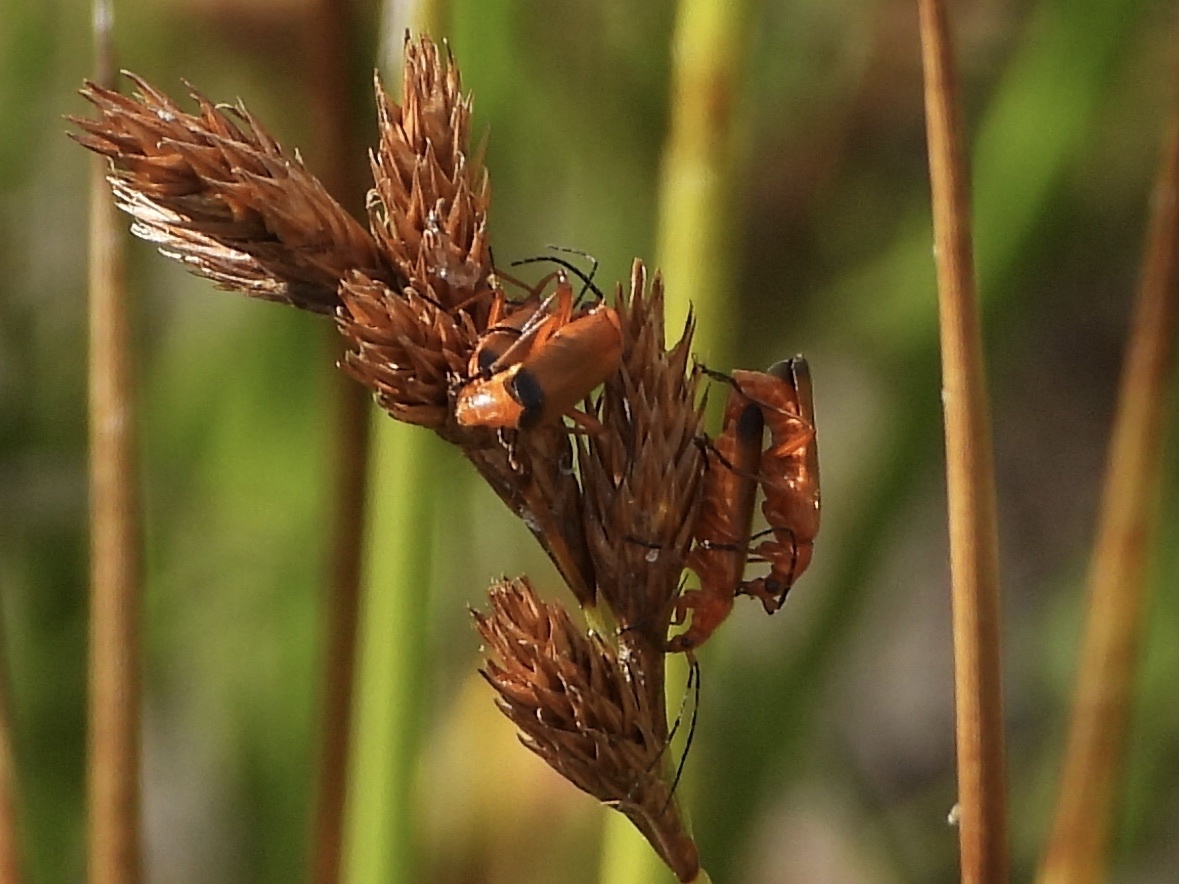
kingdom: Animalia
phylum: Arthropoda
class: Insecta
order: Coleoptera
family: Cantharidae
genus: Rhagonycha
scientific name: Rhagonycha fulva
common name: Common red soldier beetle
